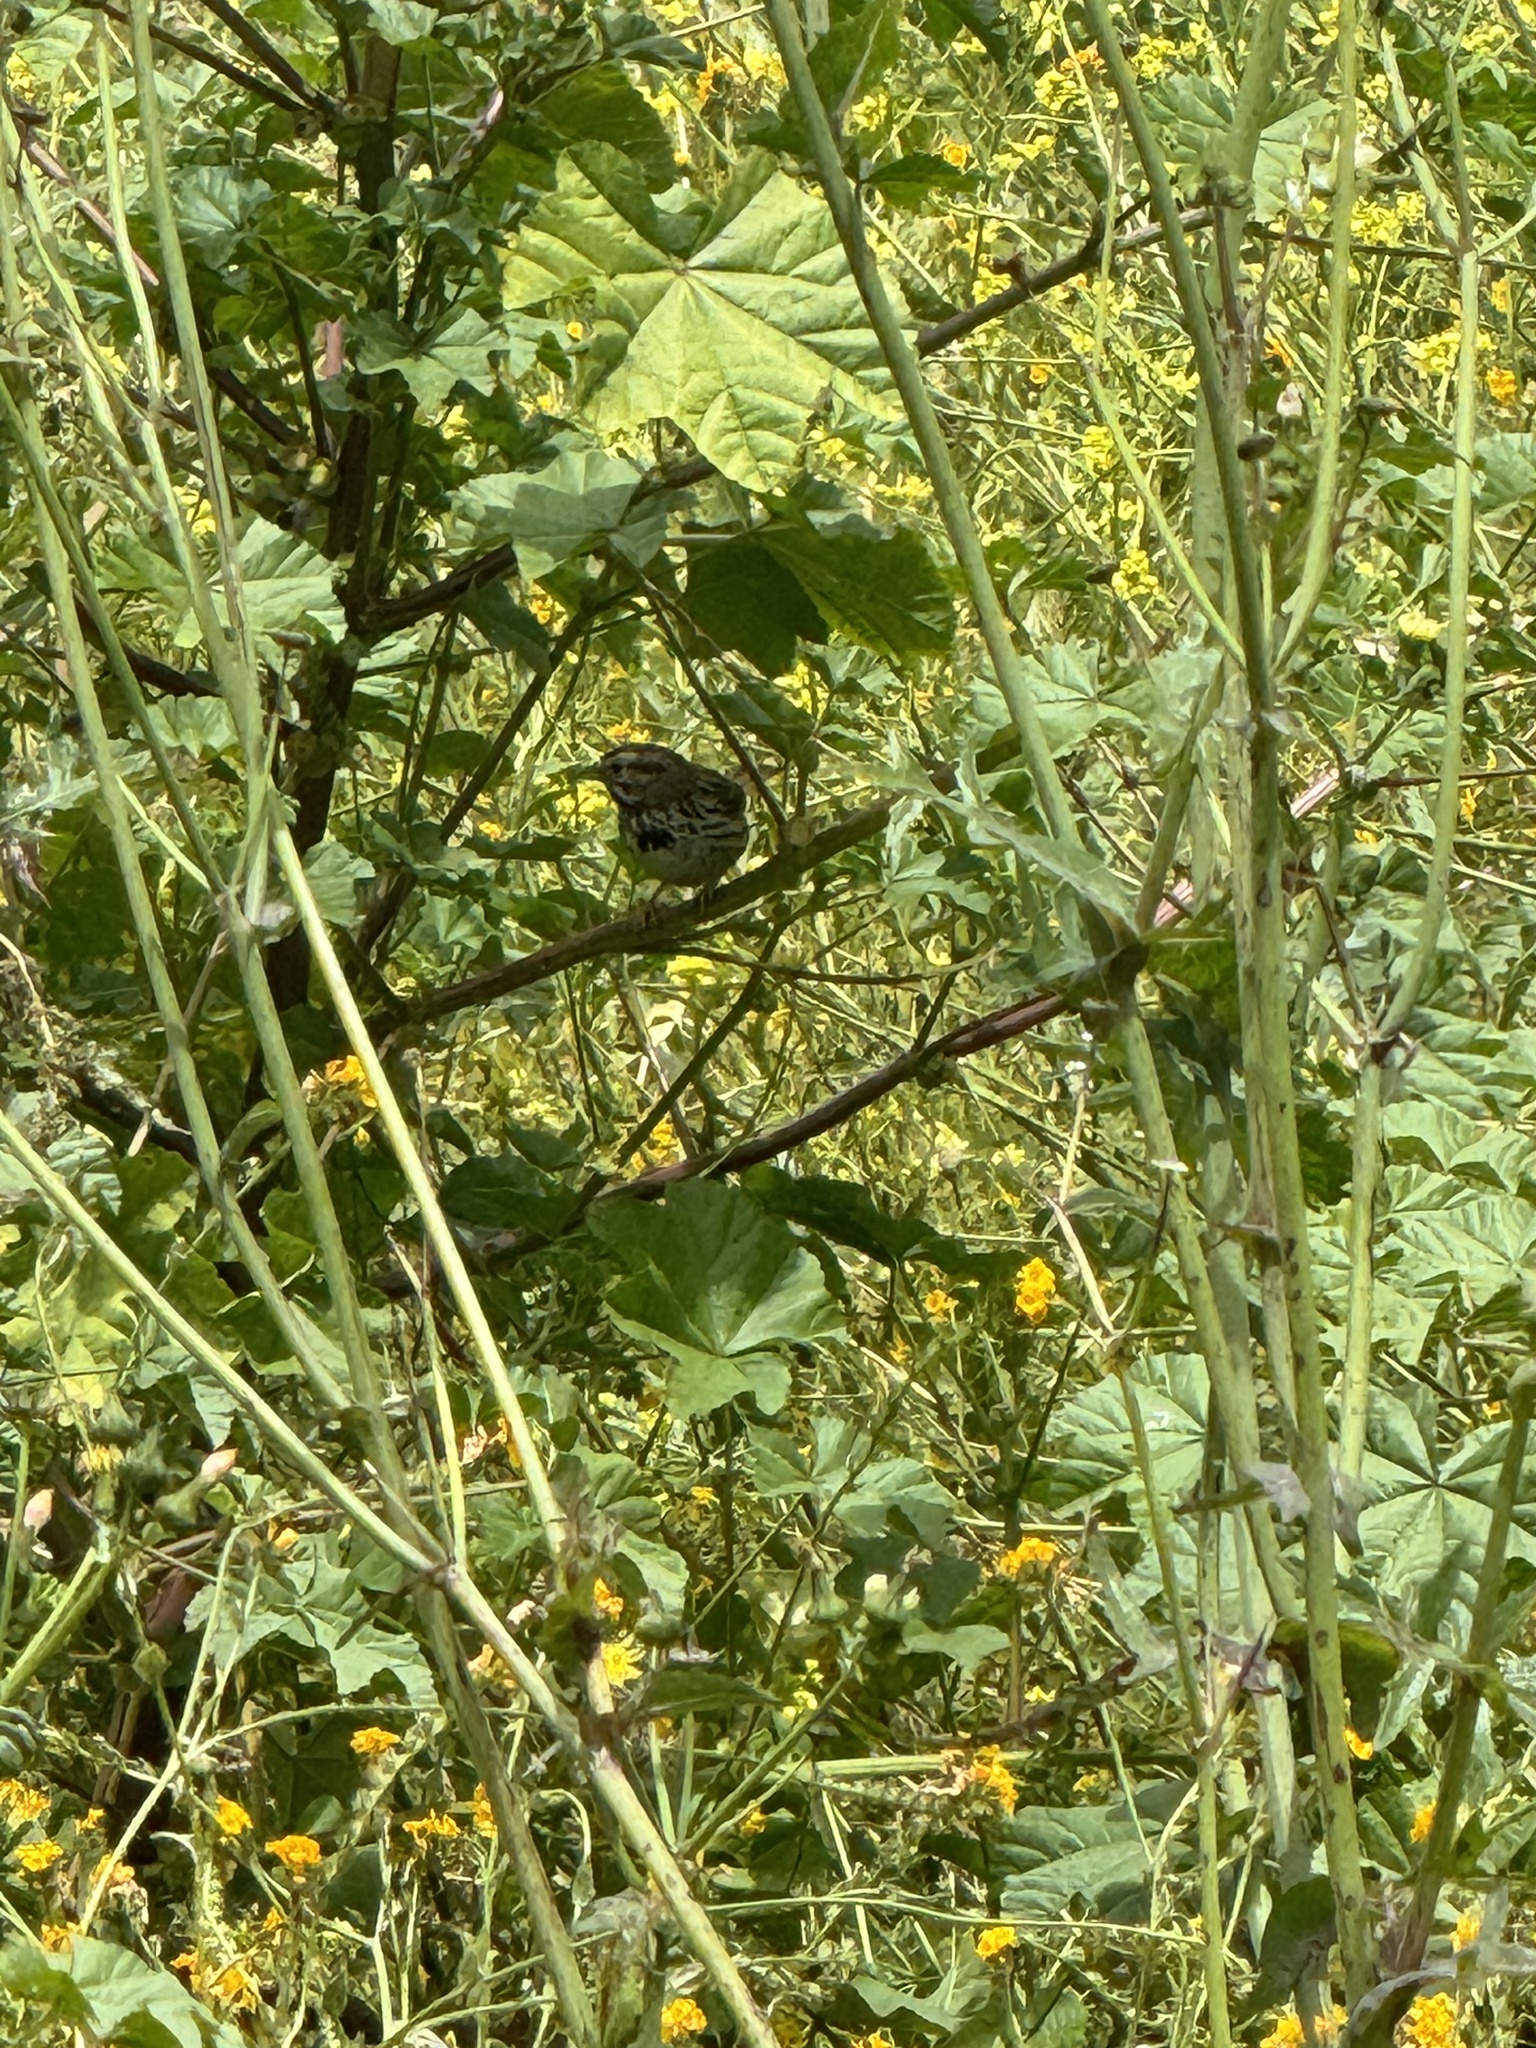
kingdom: Animalia
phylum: Chordata
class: Aves
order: Passeriformes
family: Passerellidae
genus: Melospiza
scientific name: Melospiza melodia
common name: Song sparrow
